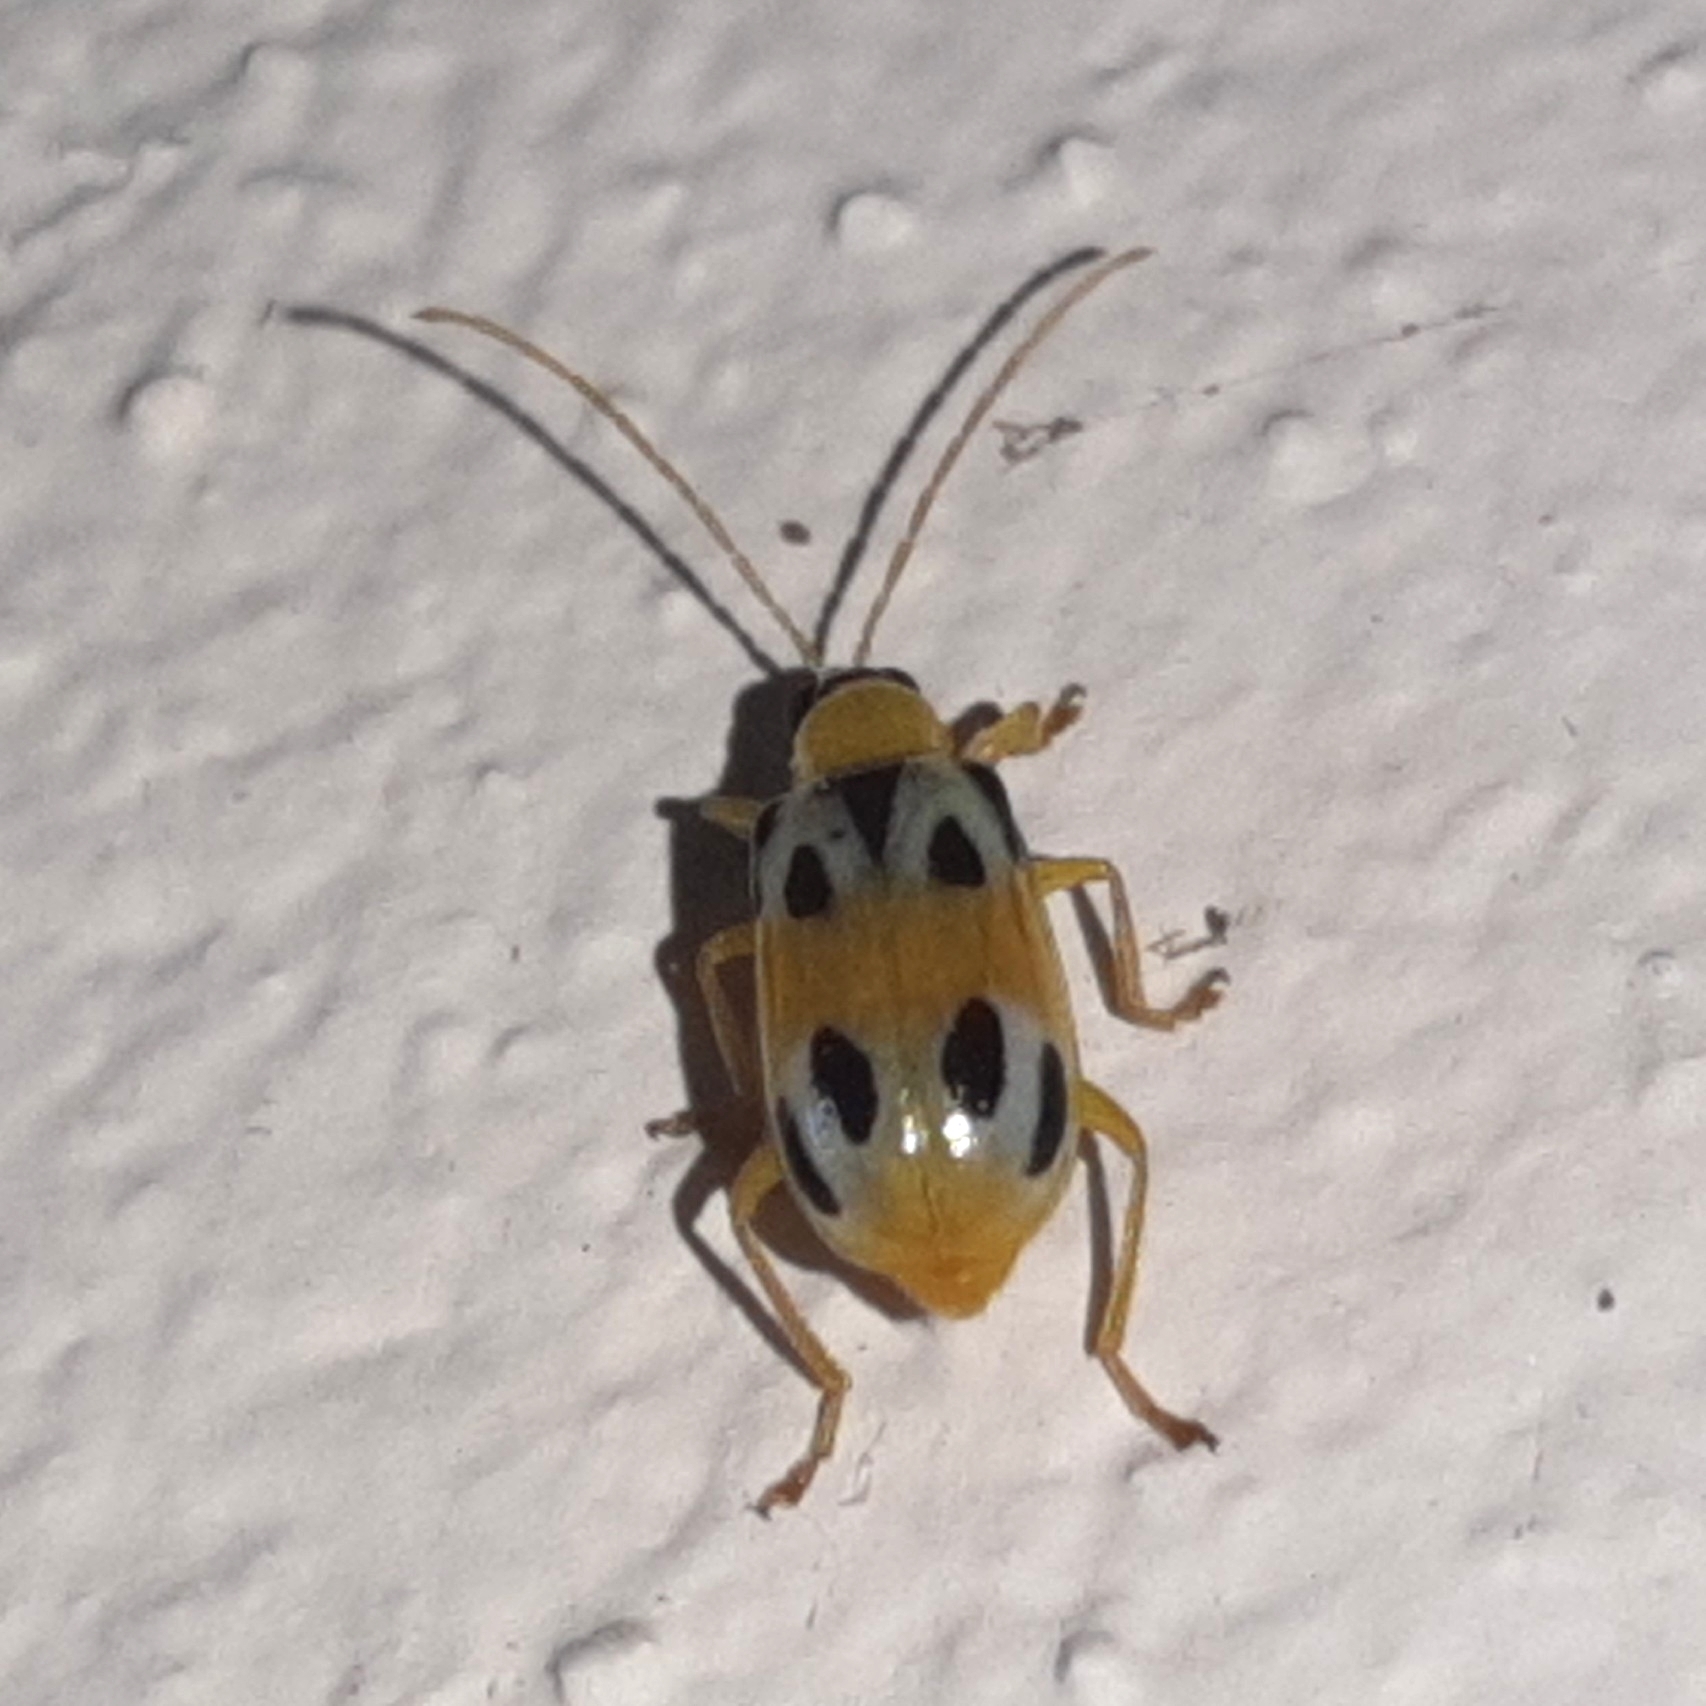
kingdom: Animalia
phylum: Arthropoda
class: Insecta
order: Coleoptera
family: Chrysomelidae
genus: Diabrotica
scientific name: Diabrotica
